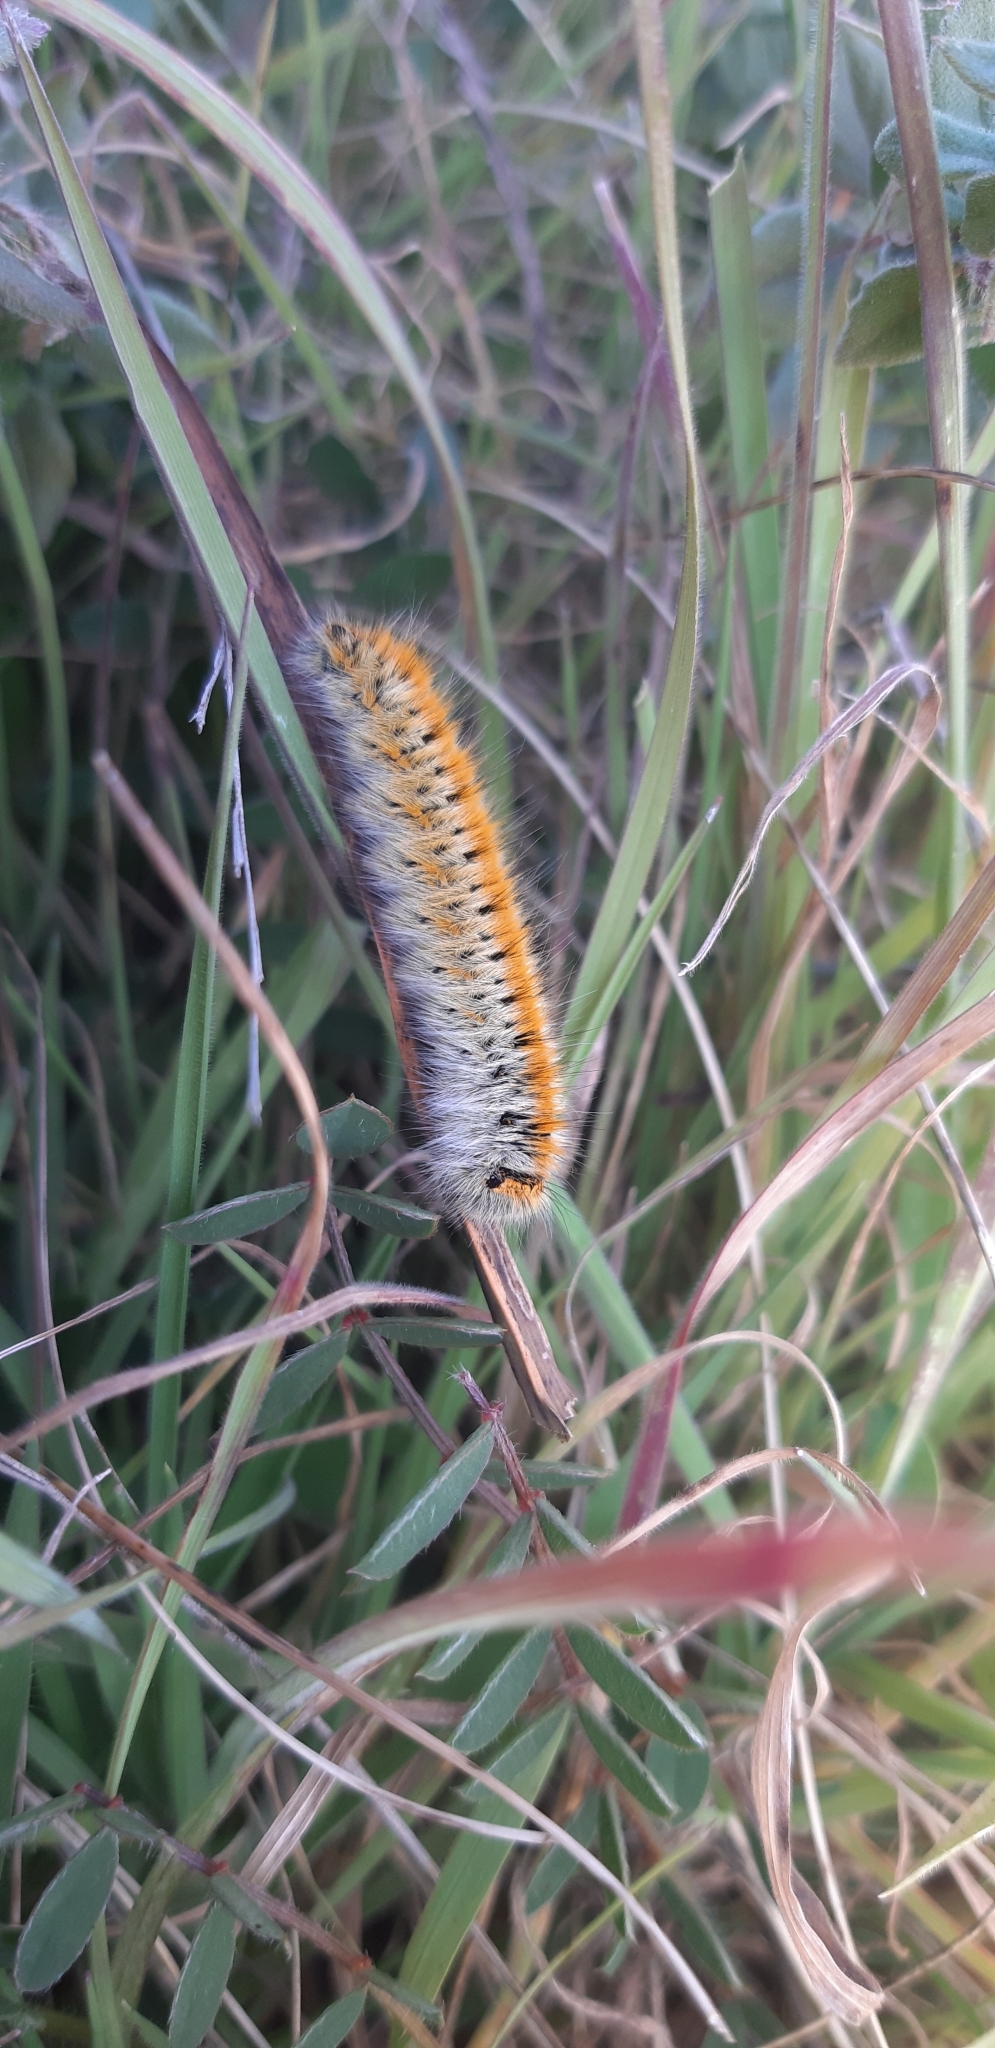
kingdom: Animalia
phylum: Arthropoda
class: Insecta
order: Lepidoptera
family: Lasiocampidae
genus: Lasiocampa
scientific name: Lasiocampa trifolii
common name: Grass eggar
